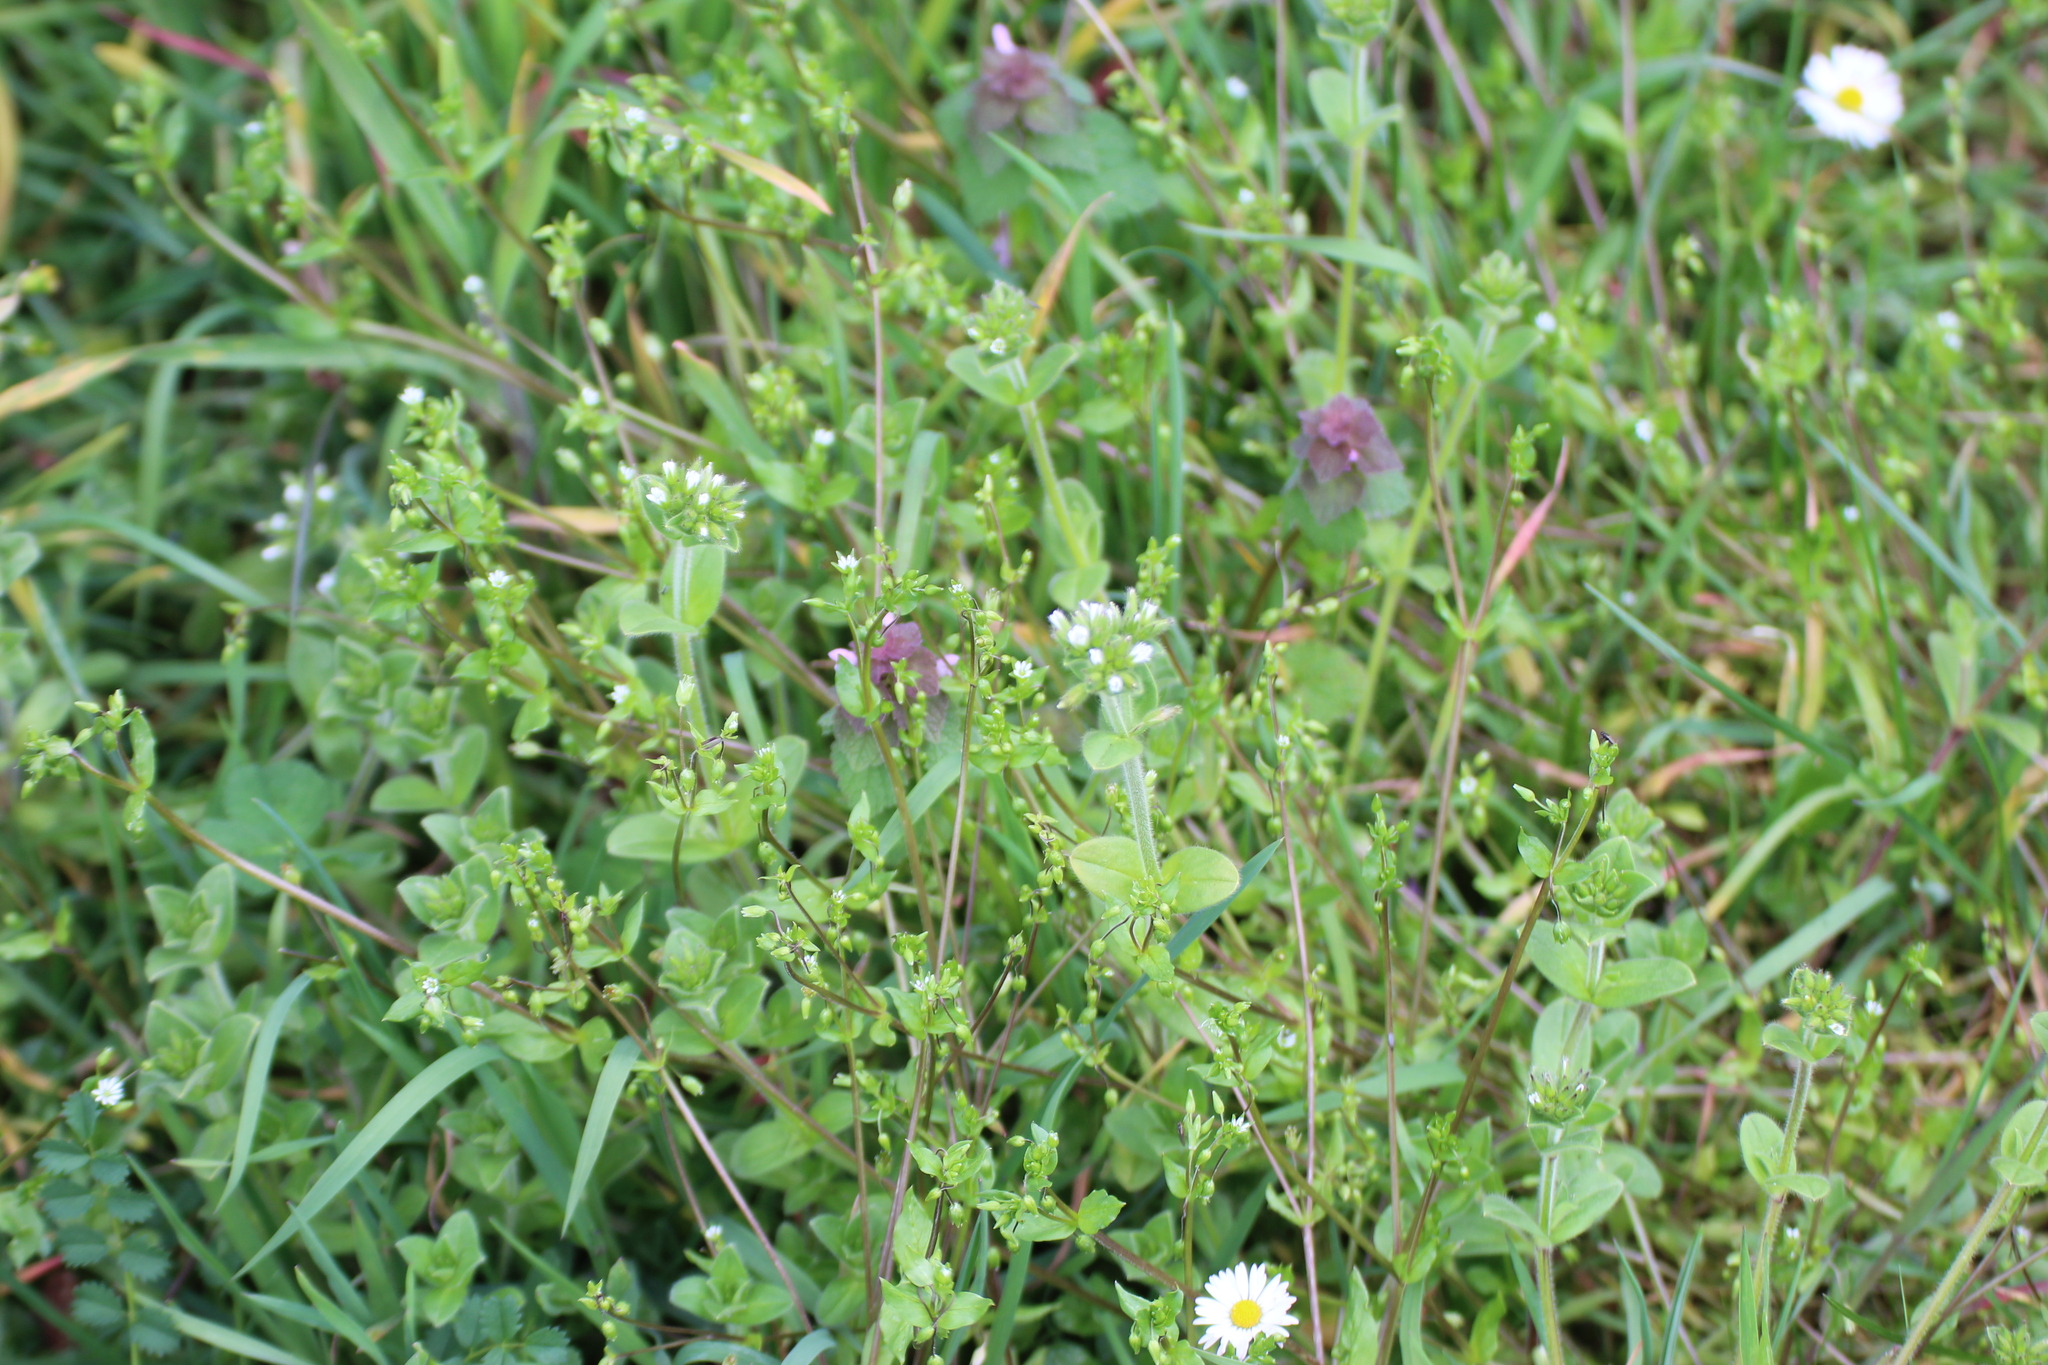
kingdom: Plantae
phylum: Tracheophyta
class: Magnoliopsida
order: Caryophyllales
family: Caryophyllaceae
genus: Cerastium
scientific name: Cerastium glomeratum
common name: Sticky chickweed
